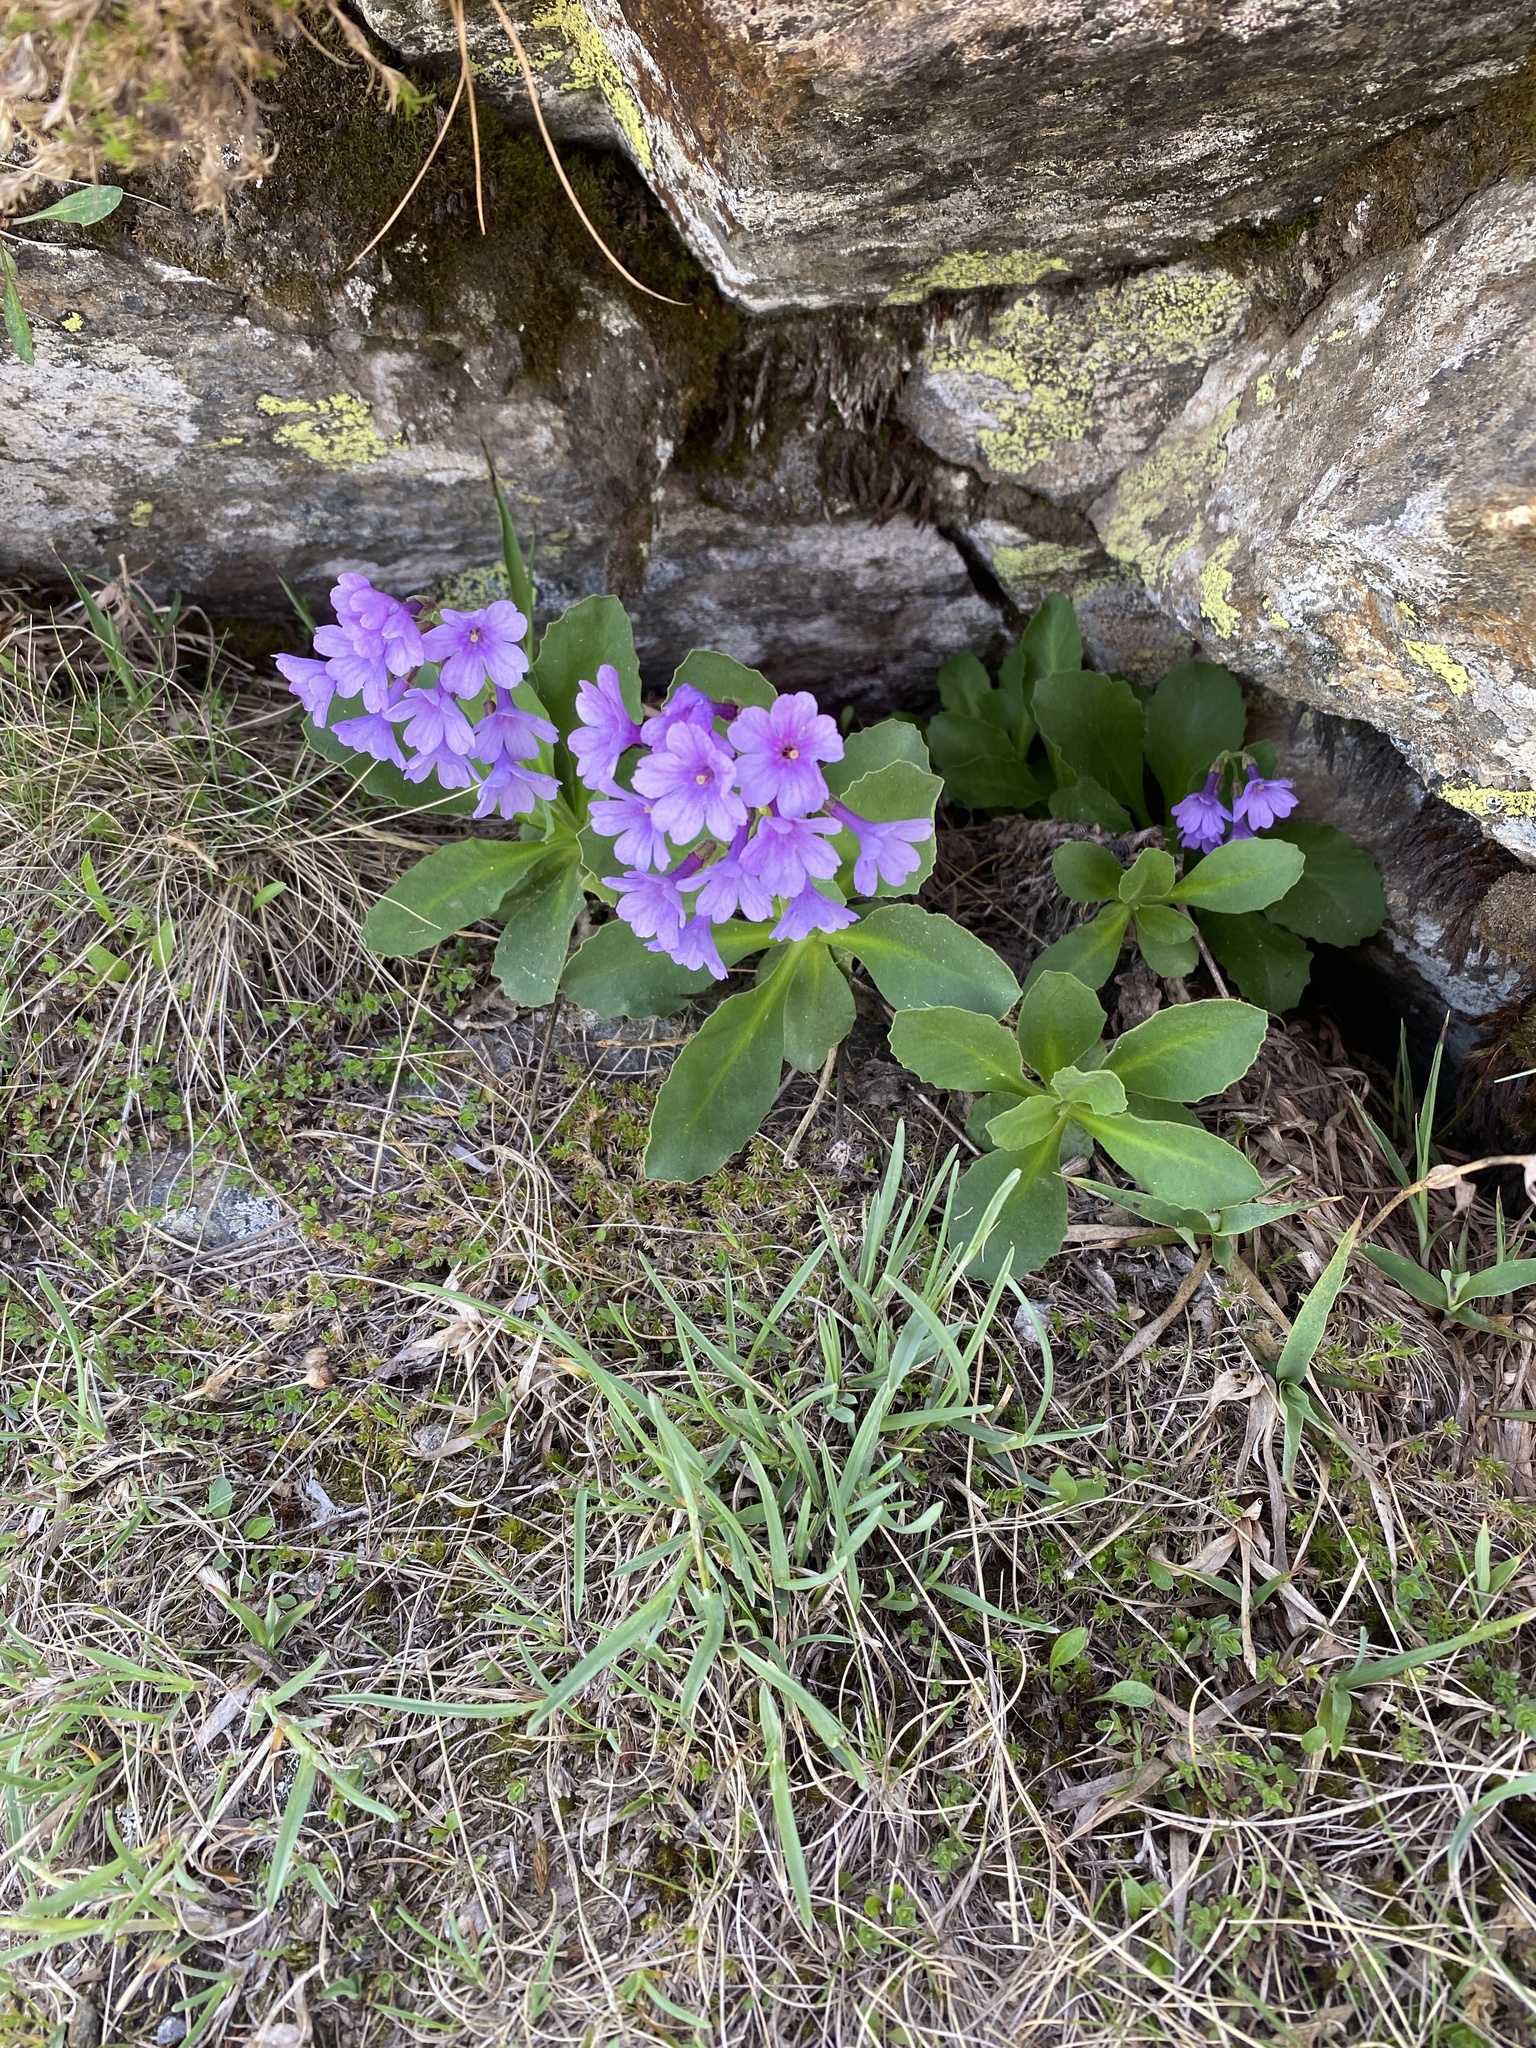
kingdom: Plantae
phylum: Tracheophyta
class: Magnoliopsida
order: Ericales
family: Primulaceae
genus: Primula
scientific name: Primula latifolia
